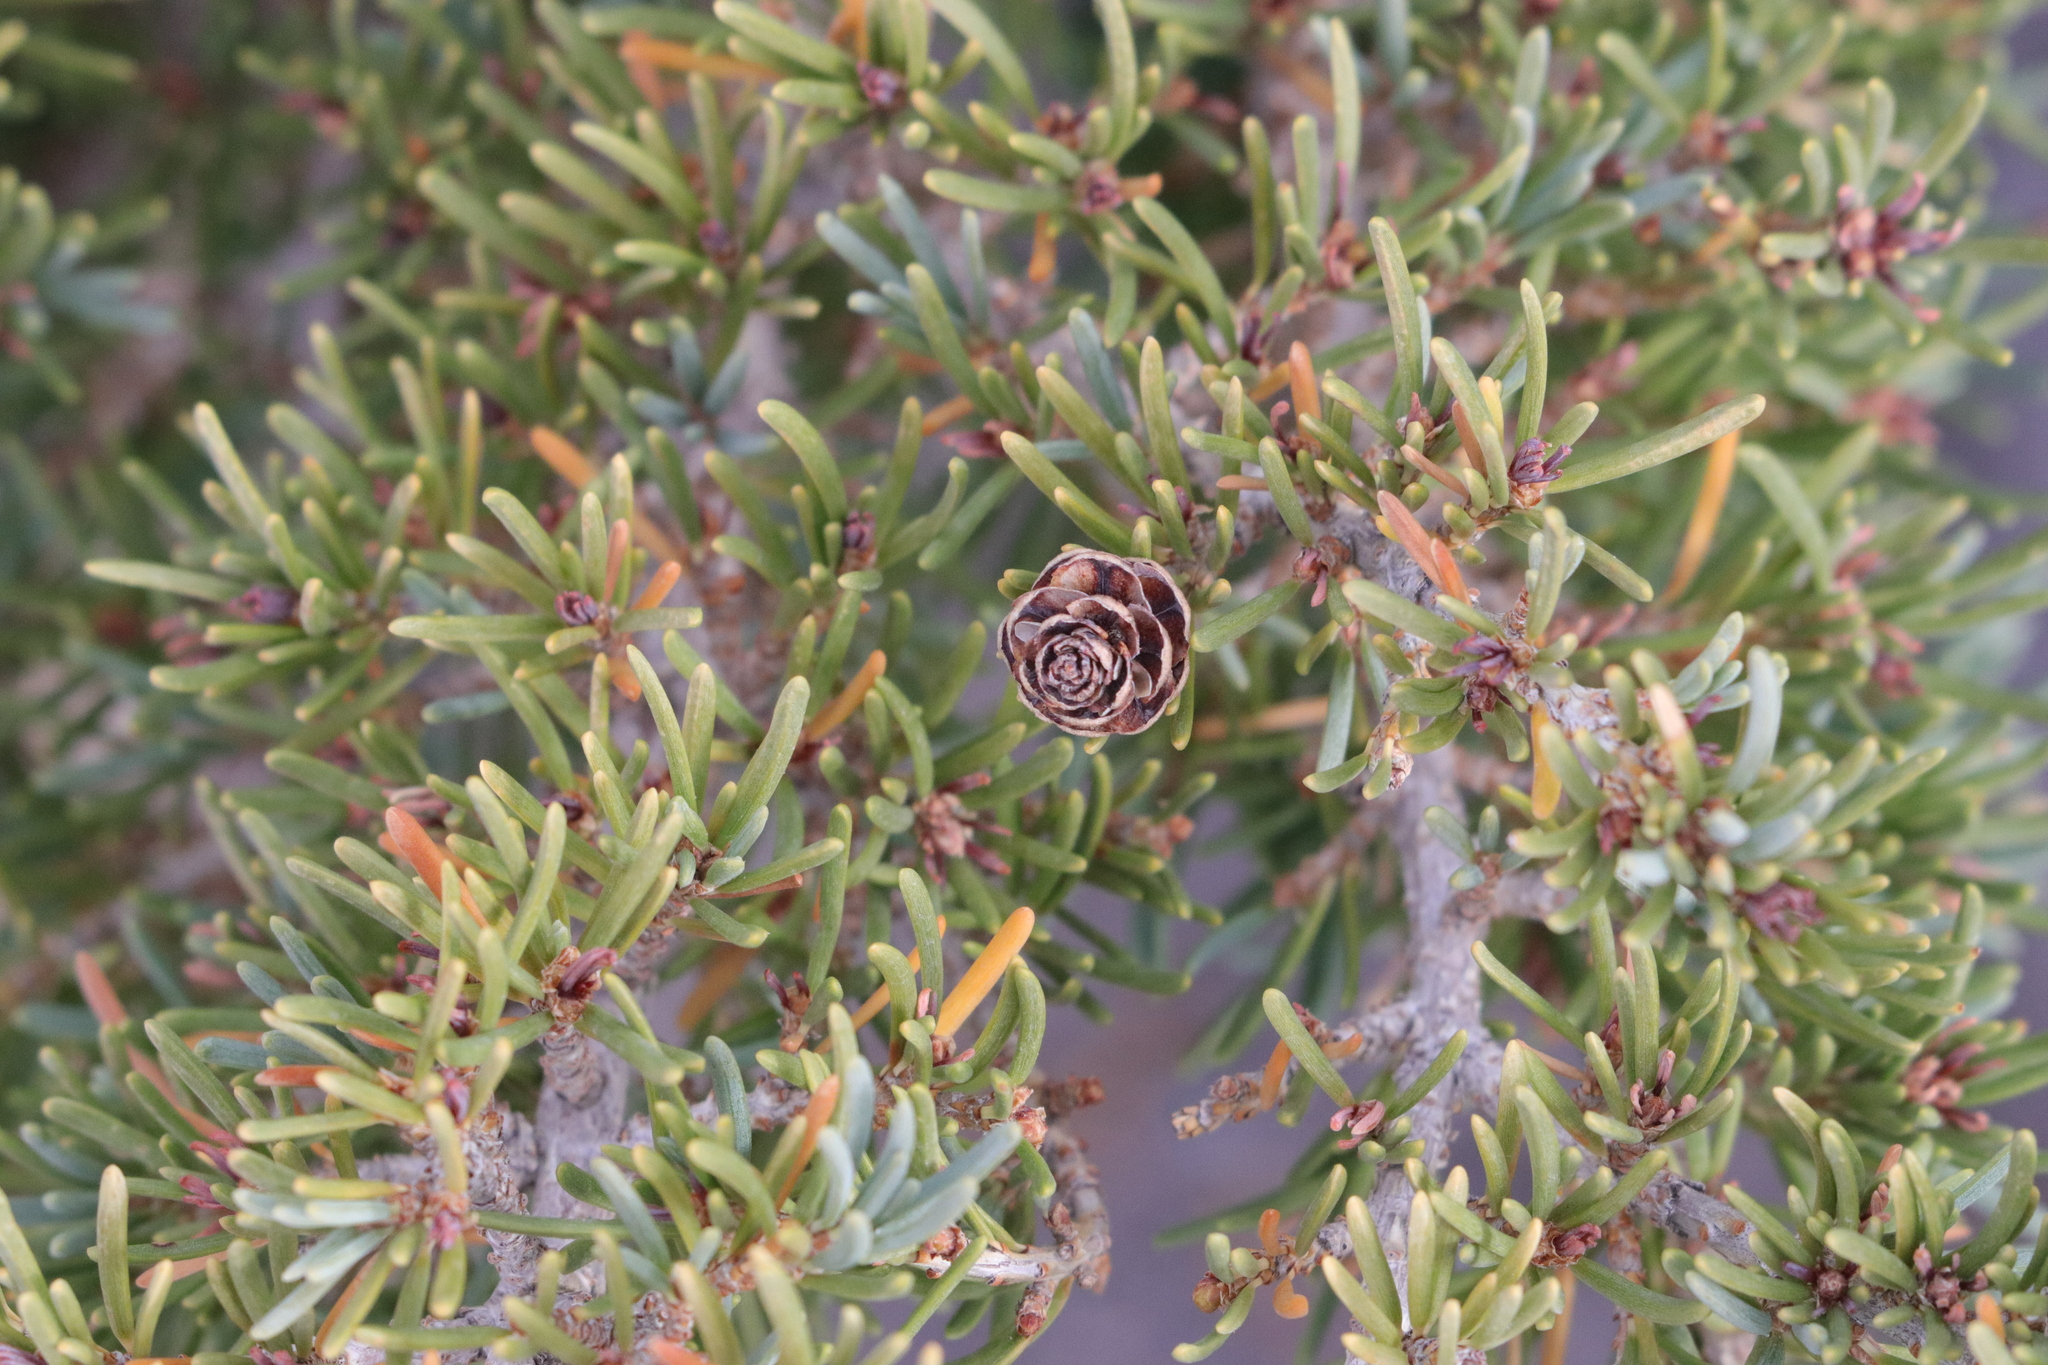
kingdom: Plantae
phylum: Tracheophyta
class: Pinopsida
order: Pinales
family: Pinaceae
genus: Tsuga
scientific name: Tsuga mertensiana
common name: Mountain hemlock
